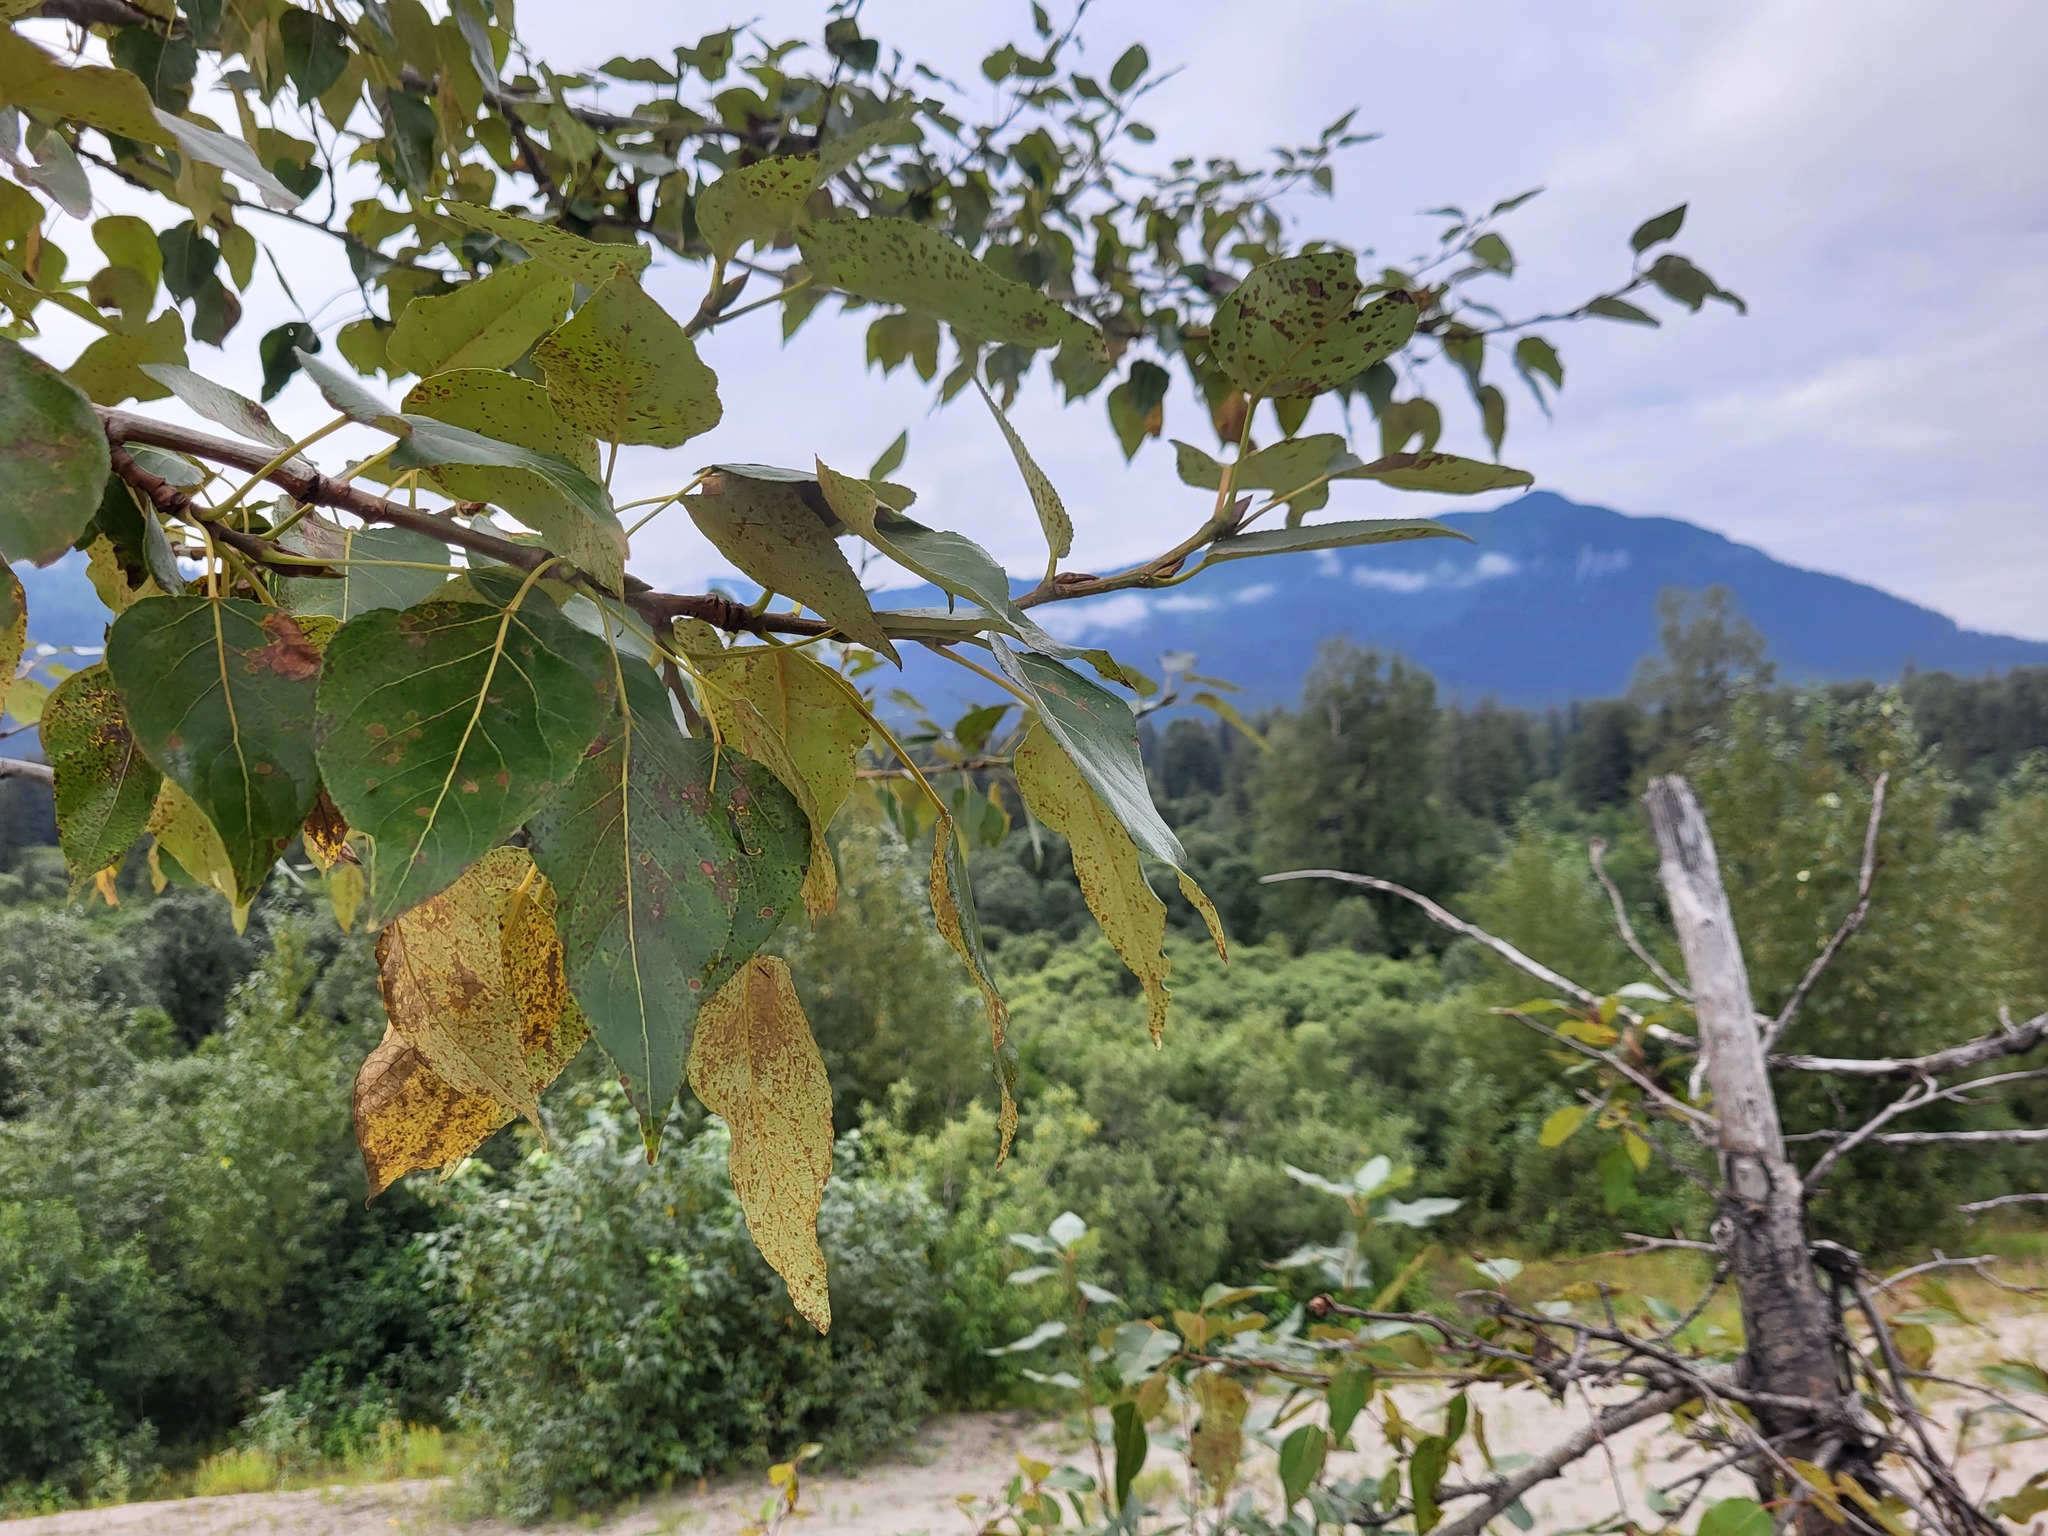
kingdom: Plantae
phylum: Tracheophyta
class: Magnoliopsida
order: Malpighiales
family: Salicaceae
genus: Populus
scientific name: Populus trichocarpa
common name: Black cottonwood
